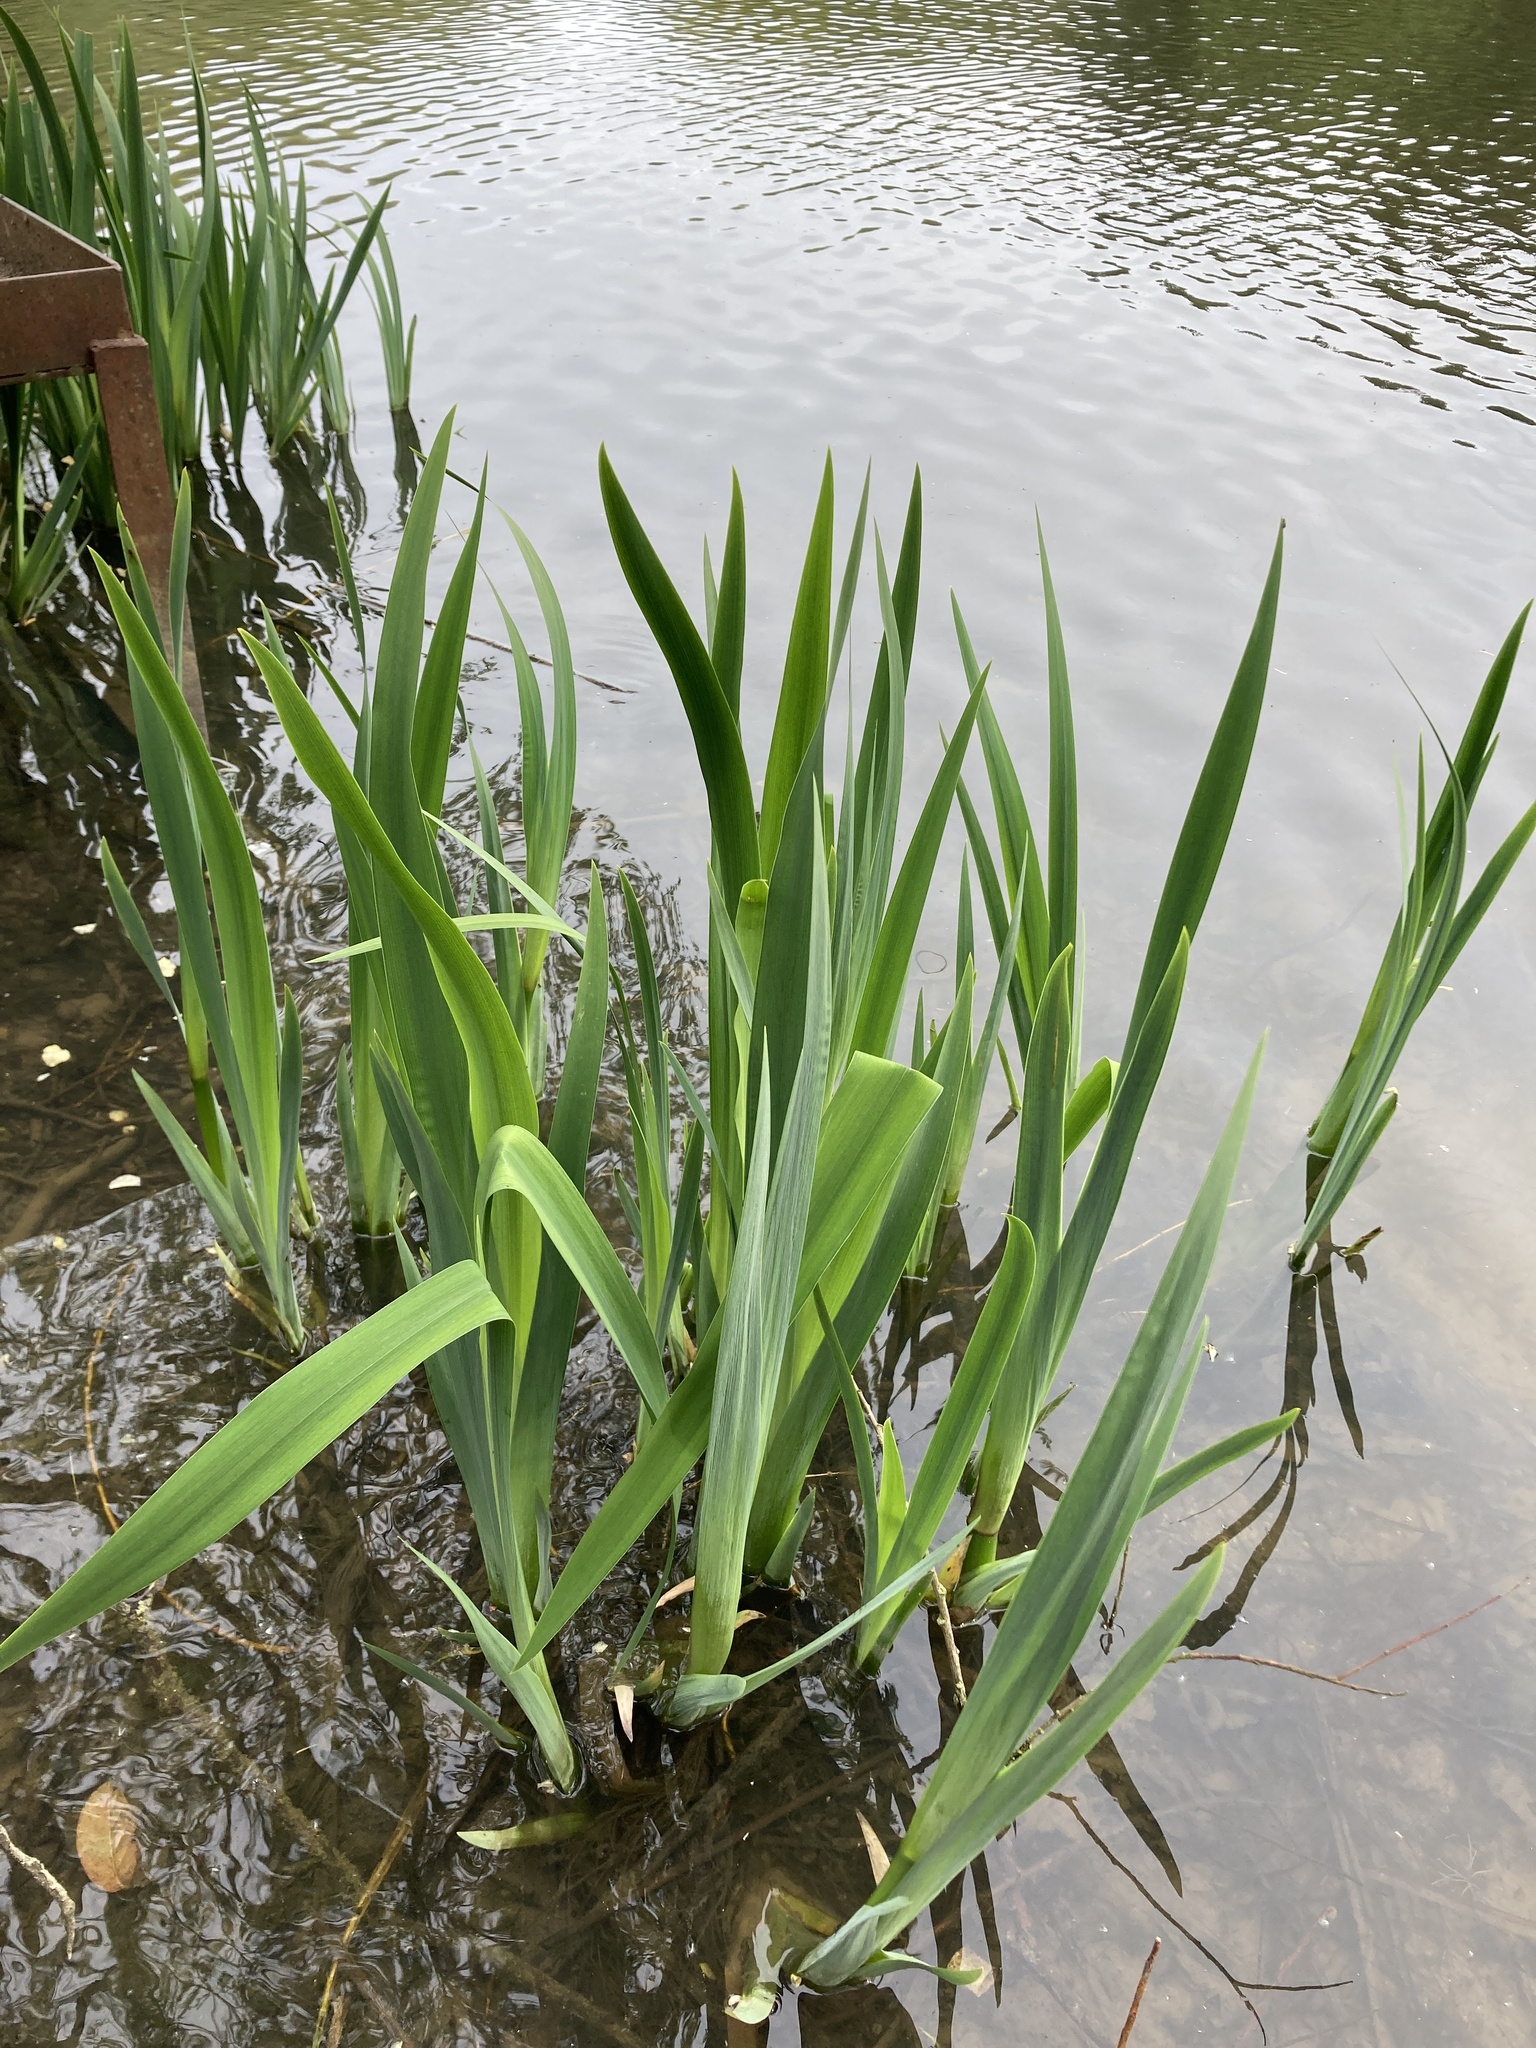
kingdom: Plantae
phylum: Tracheophyta
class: Liliopsida
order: Asparagales
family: Iridaceae
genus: Iris
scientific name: Iris pseudacorus
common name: Yellow flag
